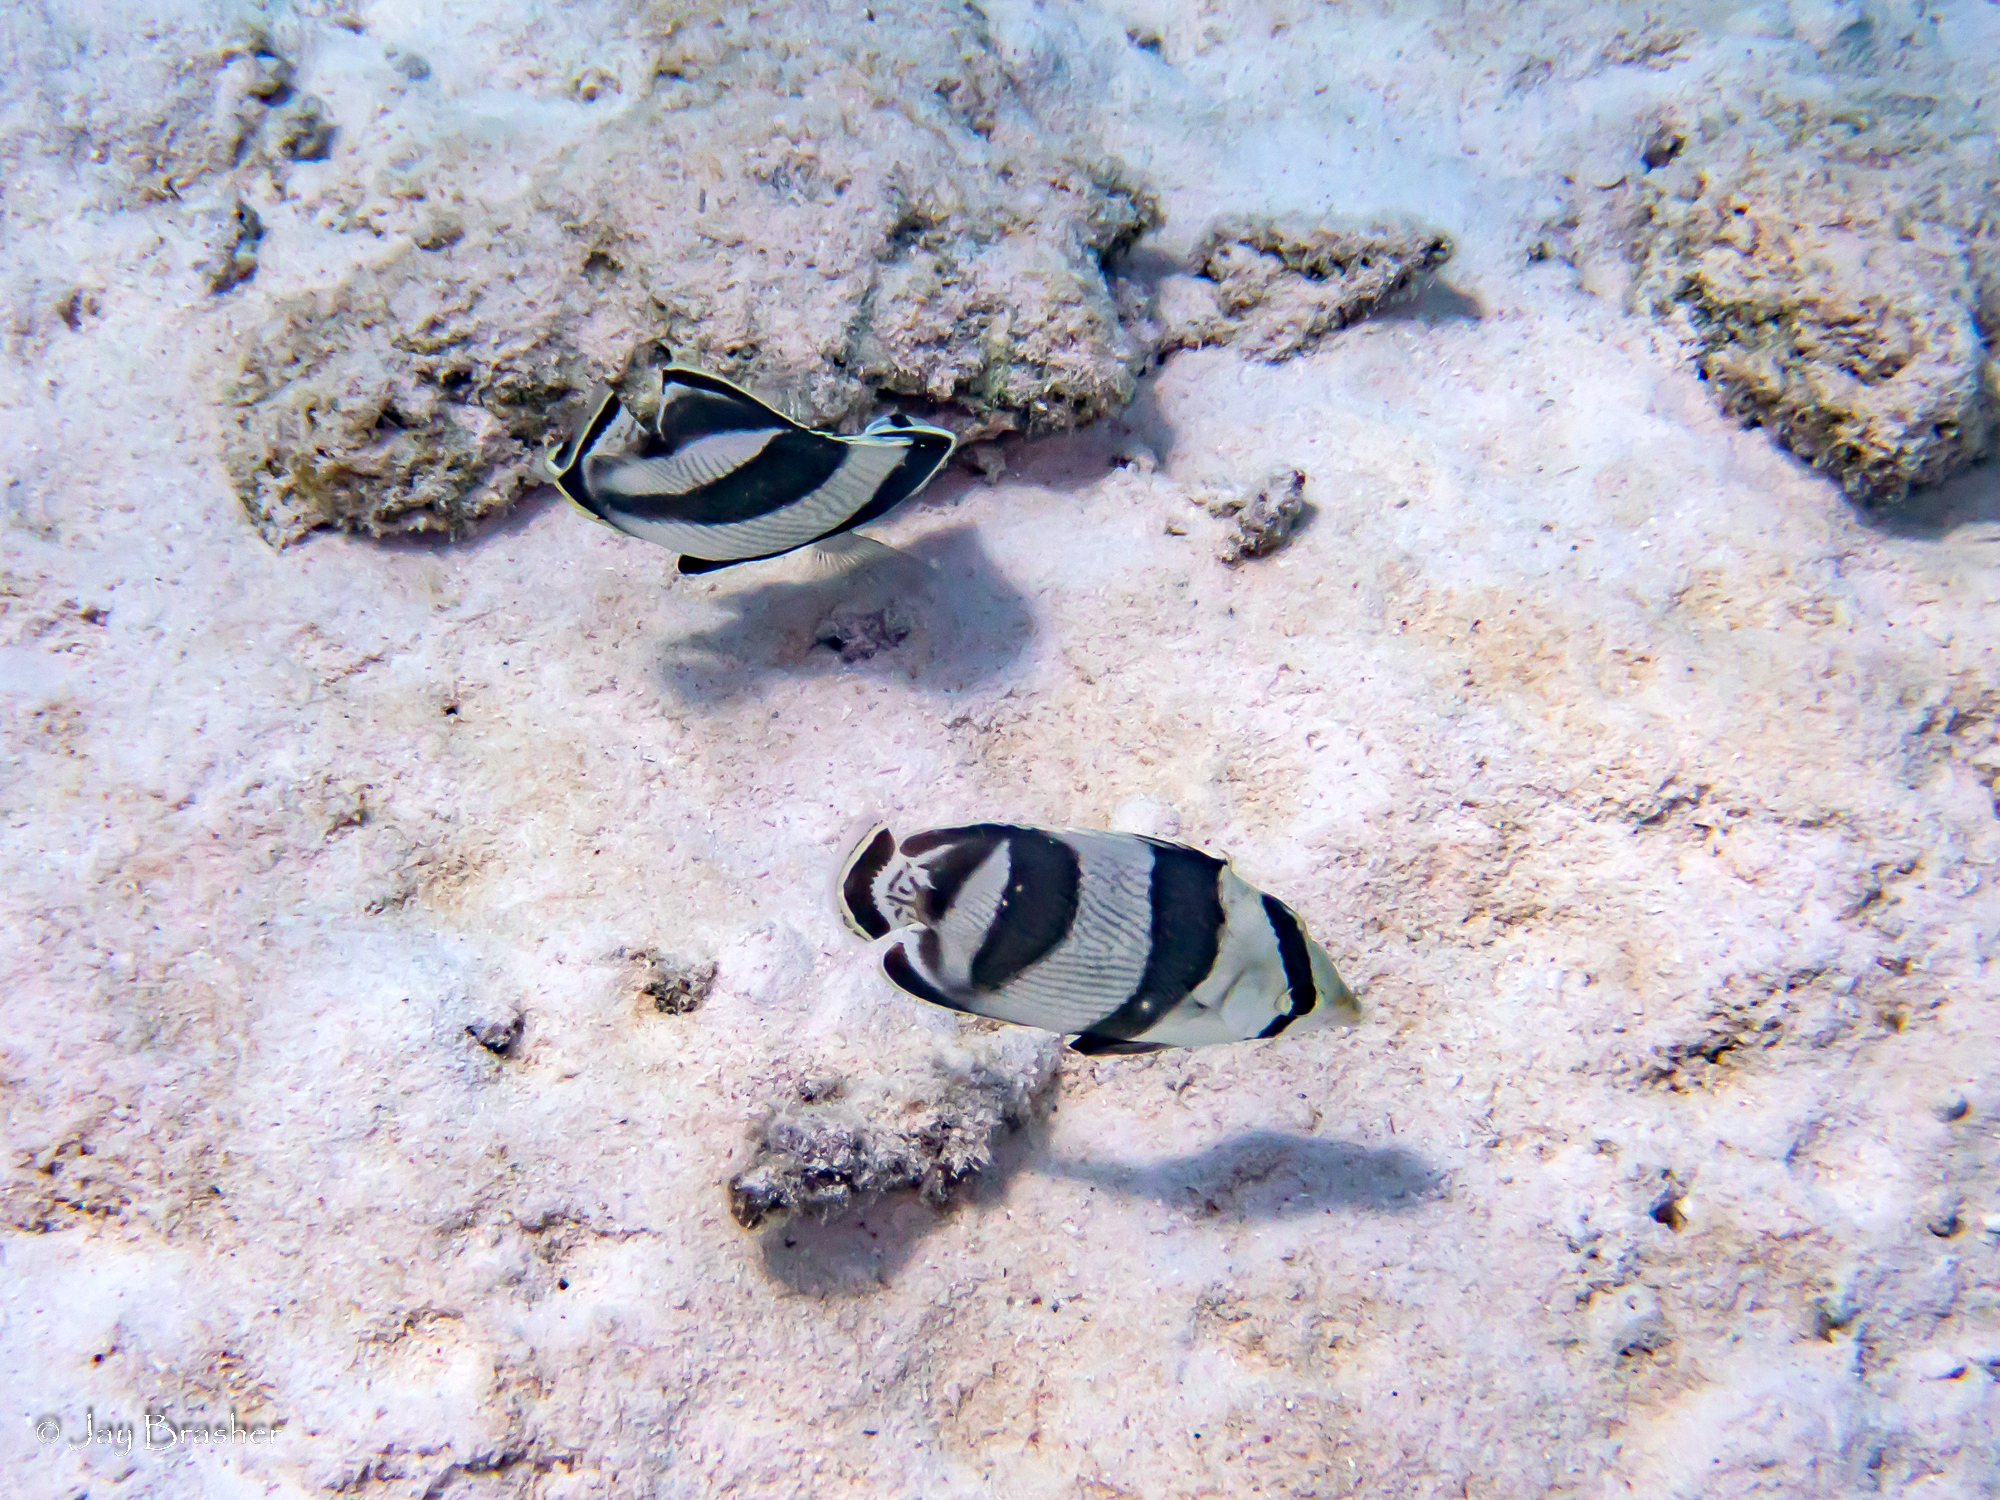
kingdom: Animalia
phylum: Chordata
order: Perciformes
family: Chaetodontidae
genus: Chaetodon
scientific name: Chaetodon striatus
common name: Banded butterflyfish
